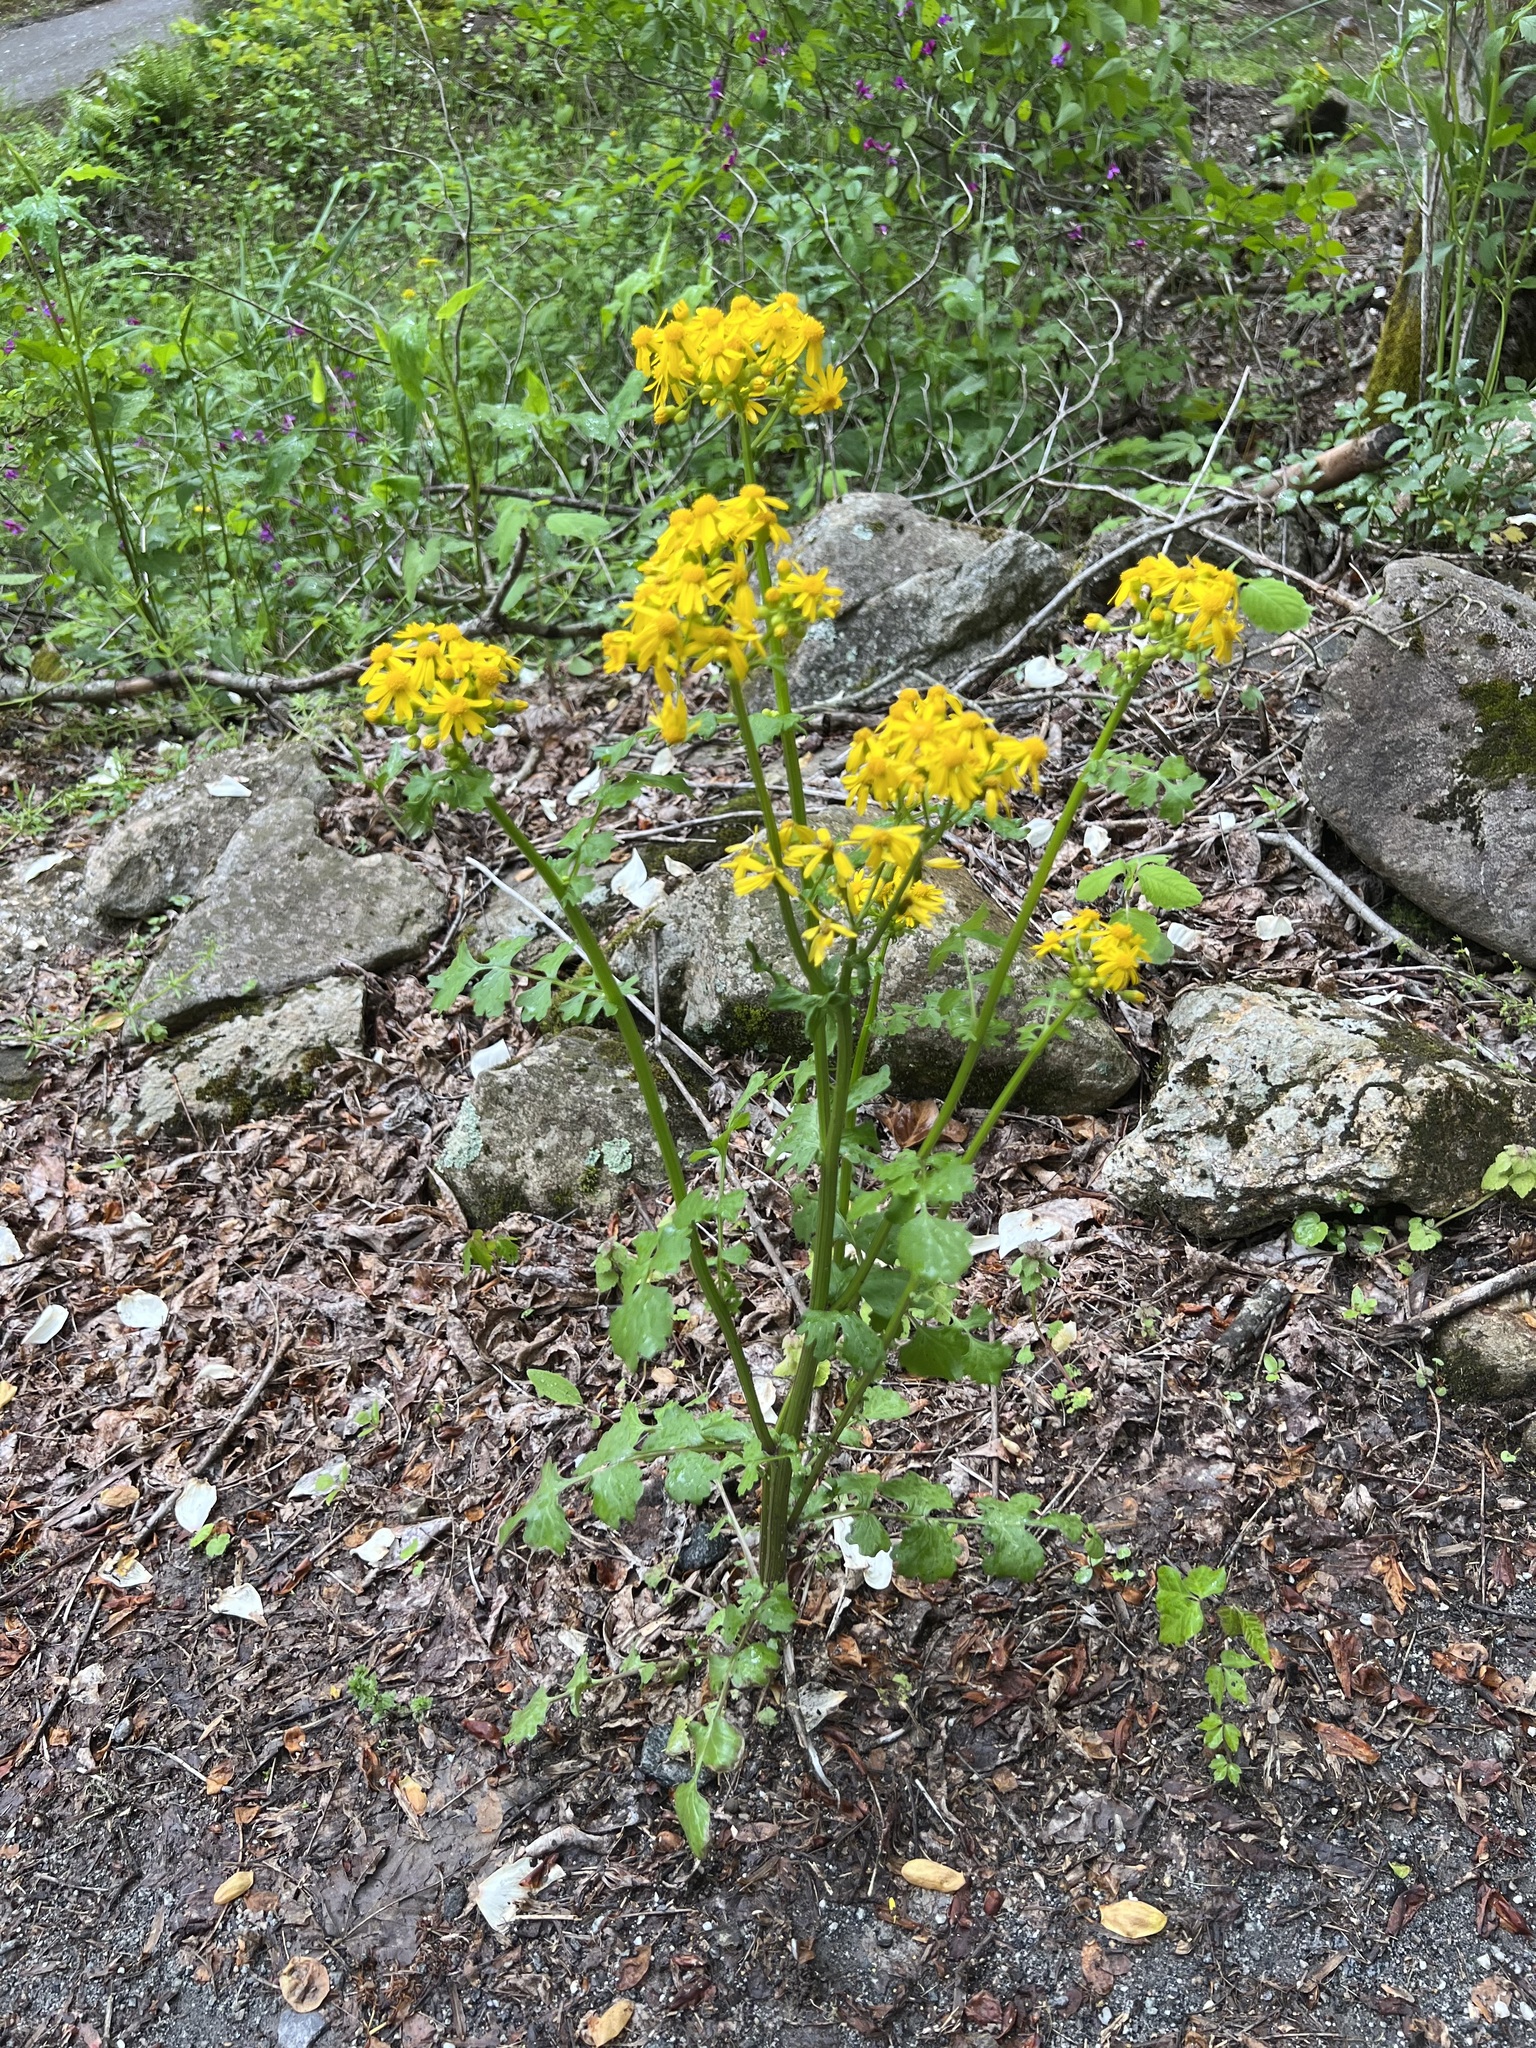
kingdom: Plantae
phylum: Tracheophyta
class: Magnoliopsida
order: Asterales
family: Asteraceae
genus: Packera
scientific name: Packera glabella
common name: Butterweed
